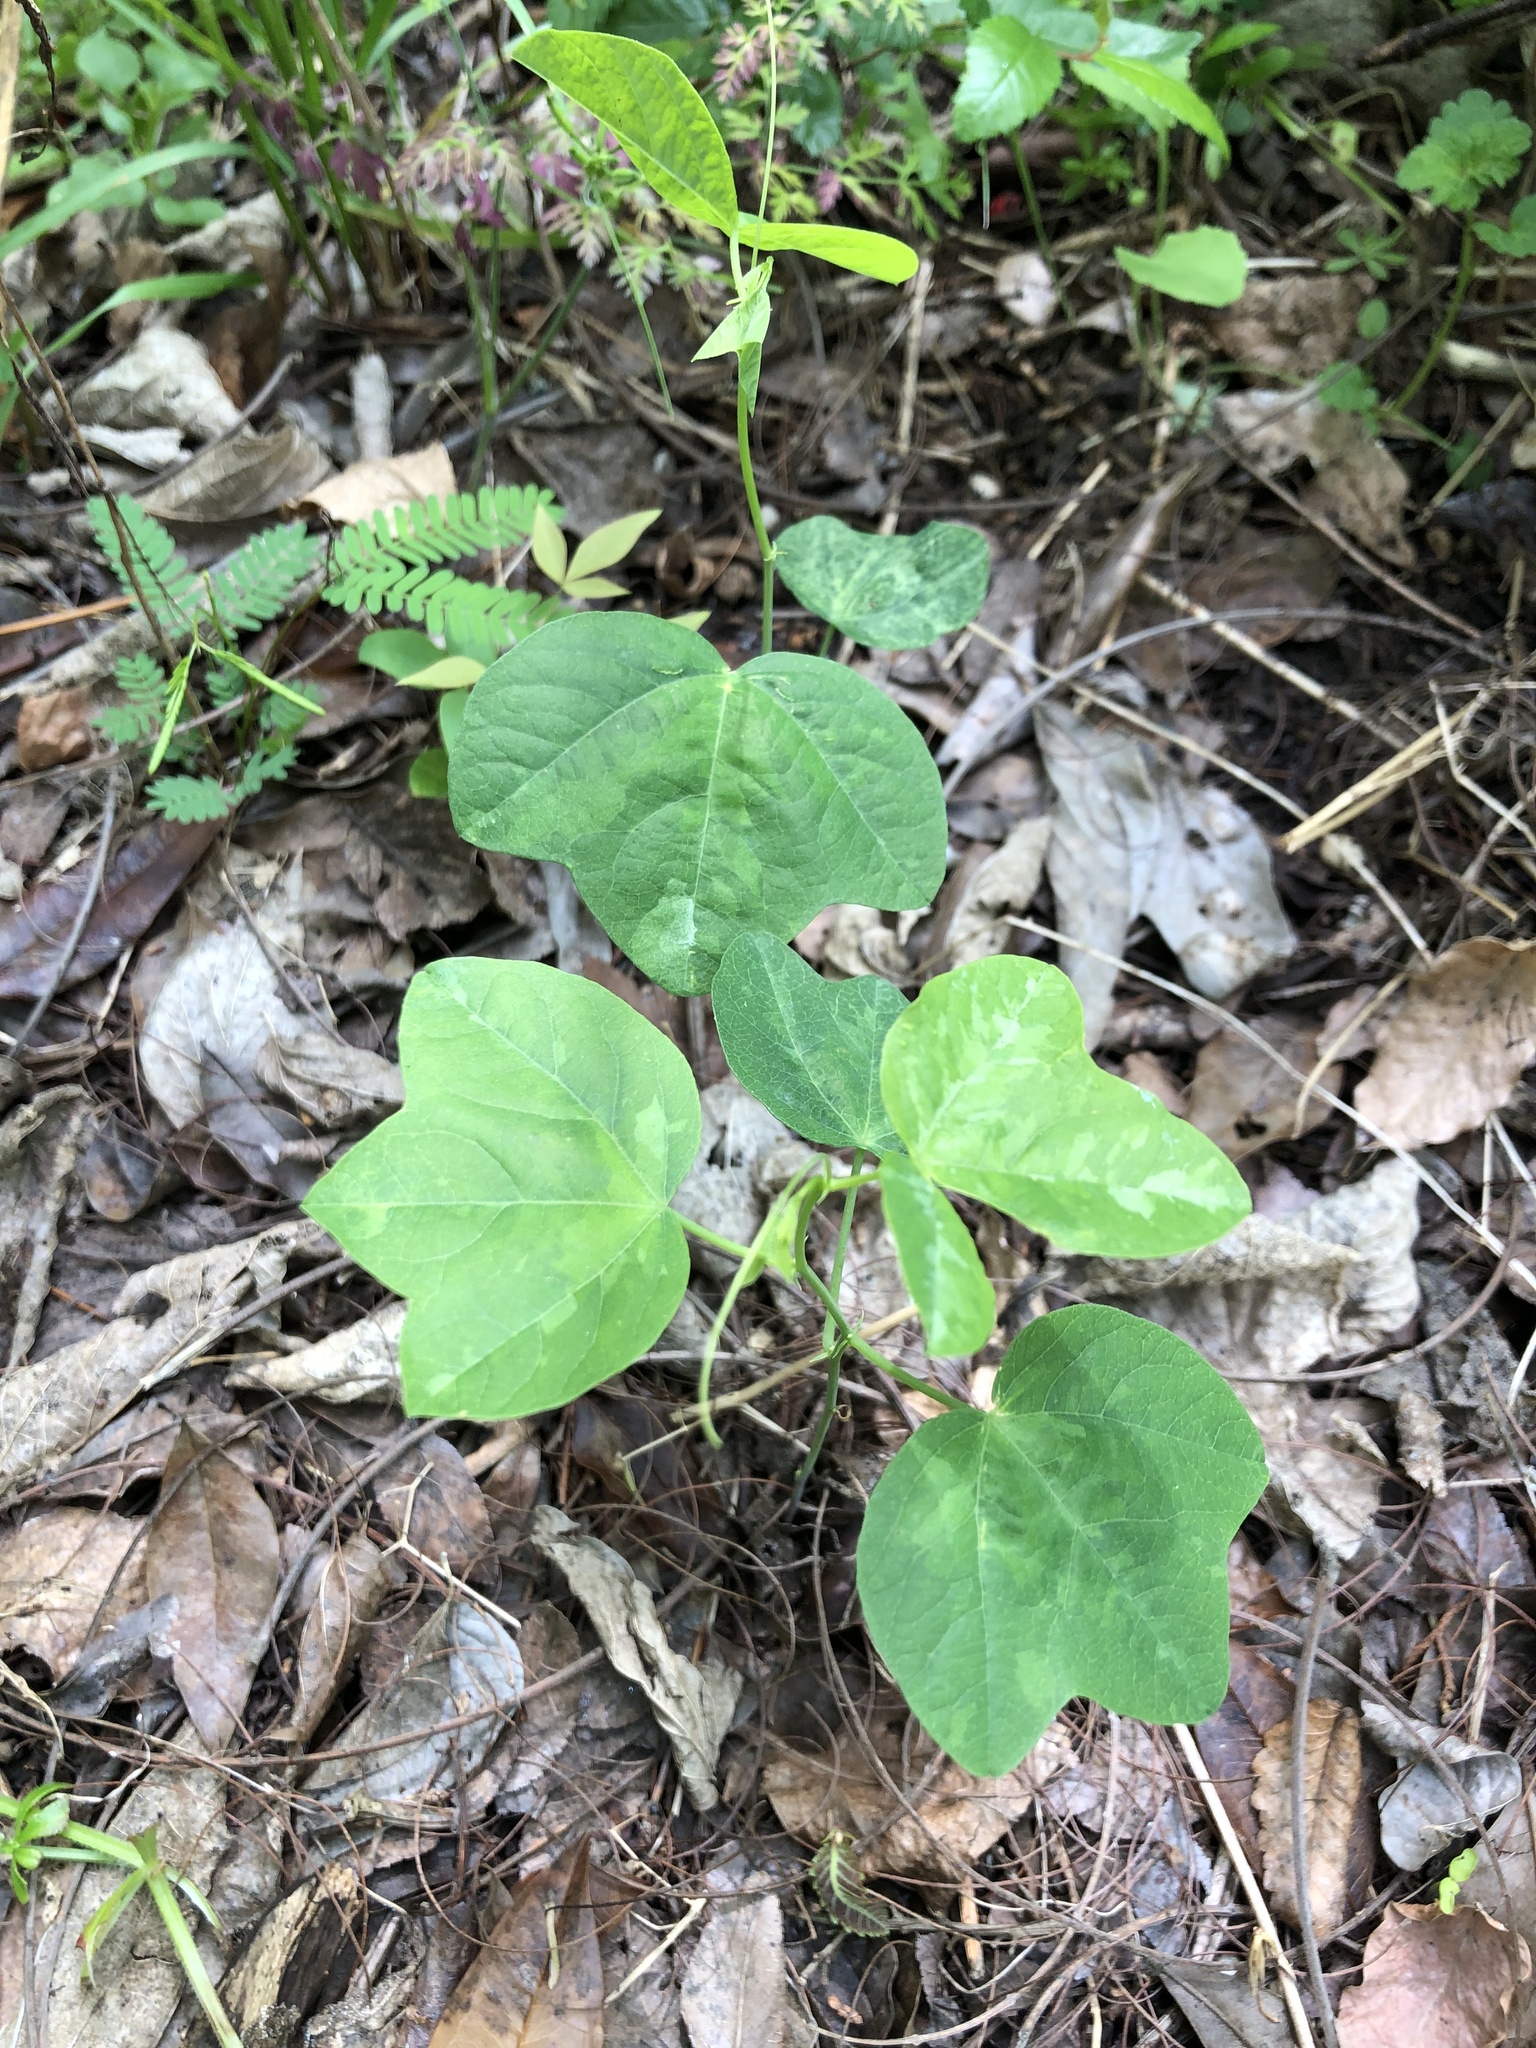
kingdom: Plantae
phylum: Tracheophyta
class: Magnoliopsida
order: Malpighiales
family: Passifloraceae
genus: Passiflora
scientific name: Passiflora lutea
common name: Yellow passionflower
